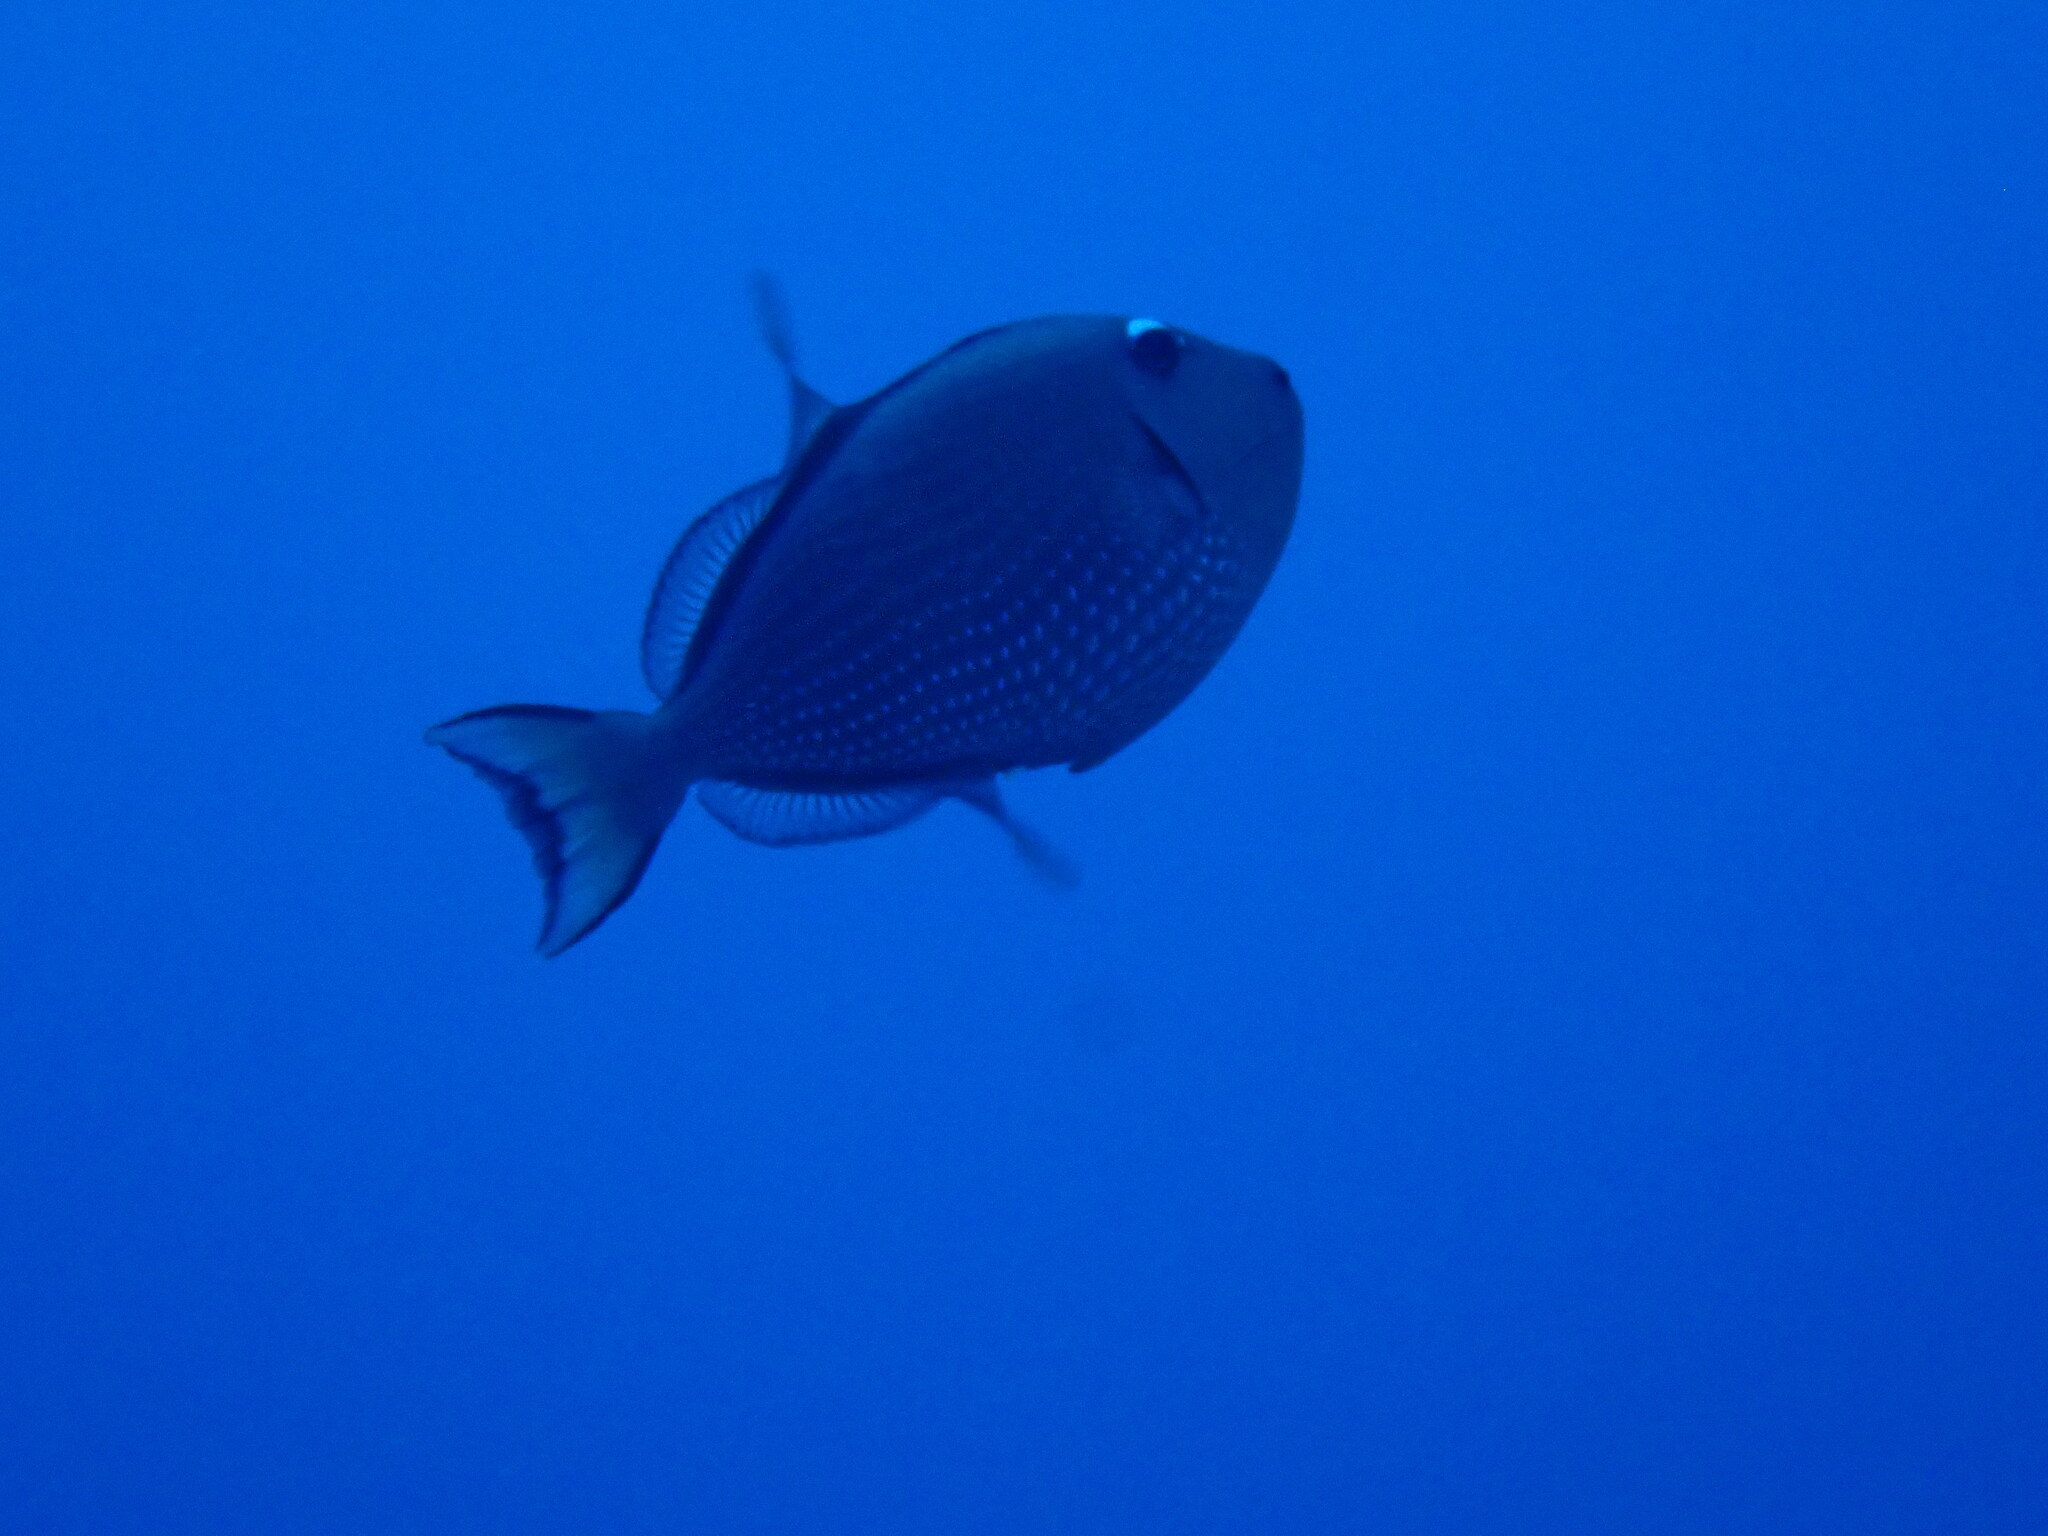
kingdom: Animalia
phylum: Chordata
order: Tetraodontiformes
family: Balistidae
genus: Xanthichthys
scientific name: Xanthichthys auromarginatus
